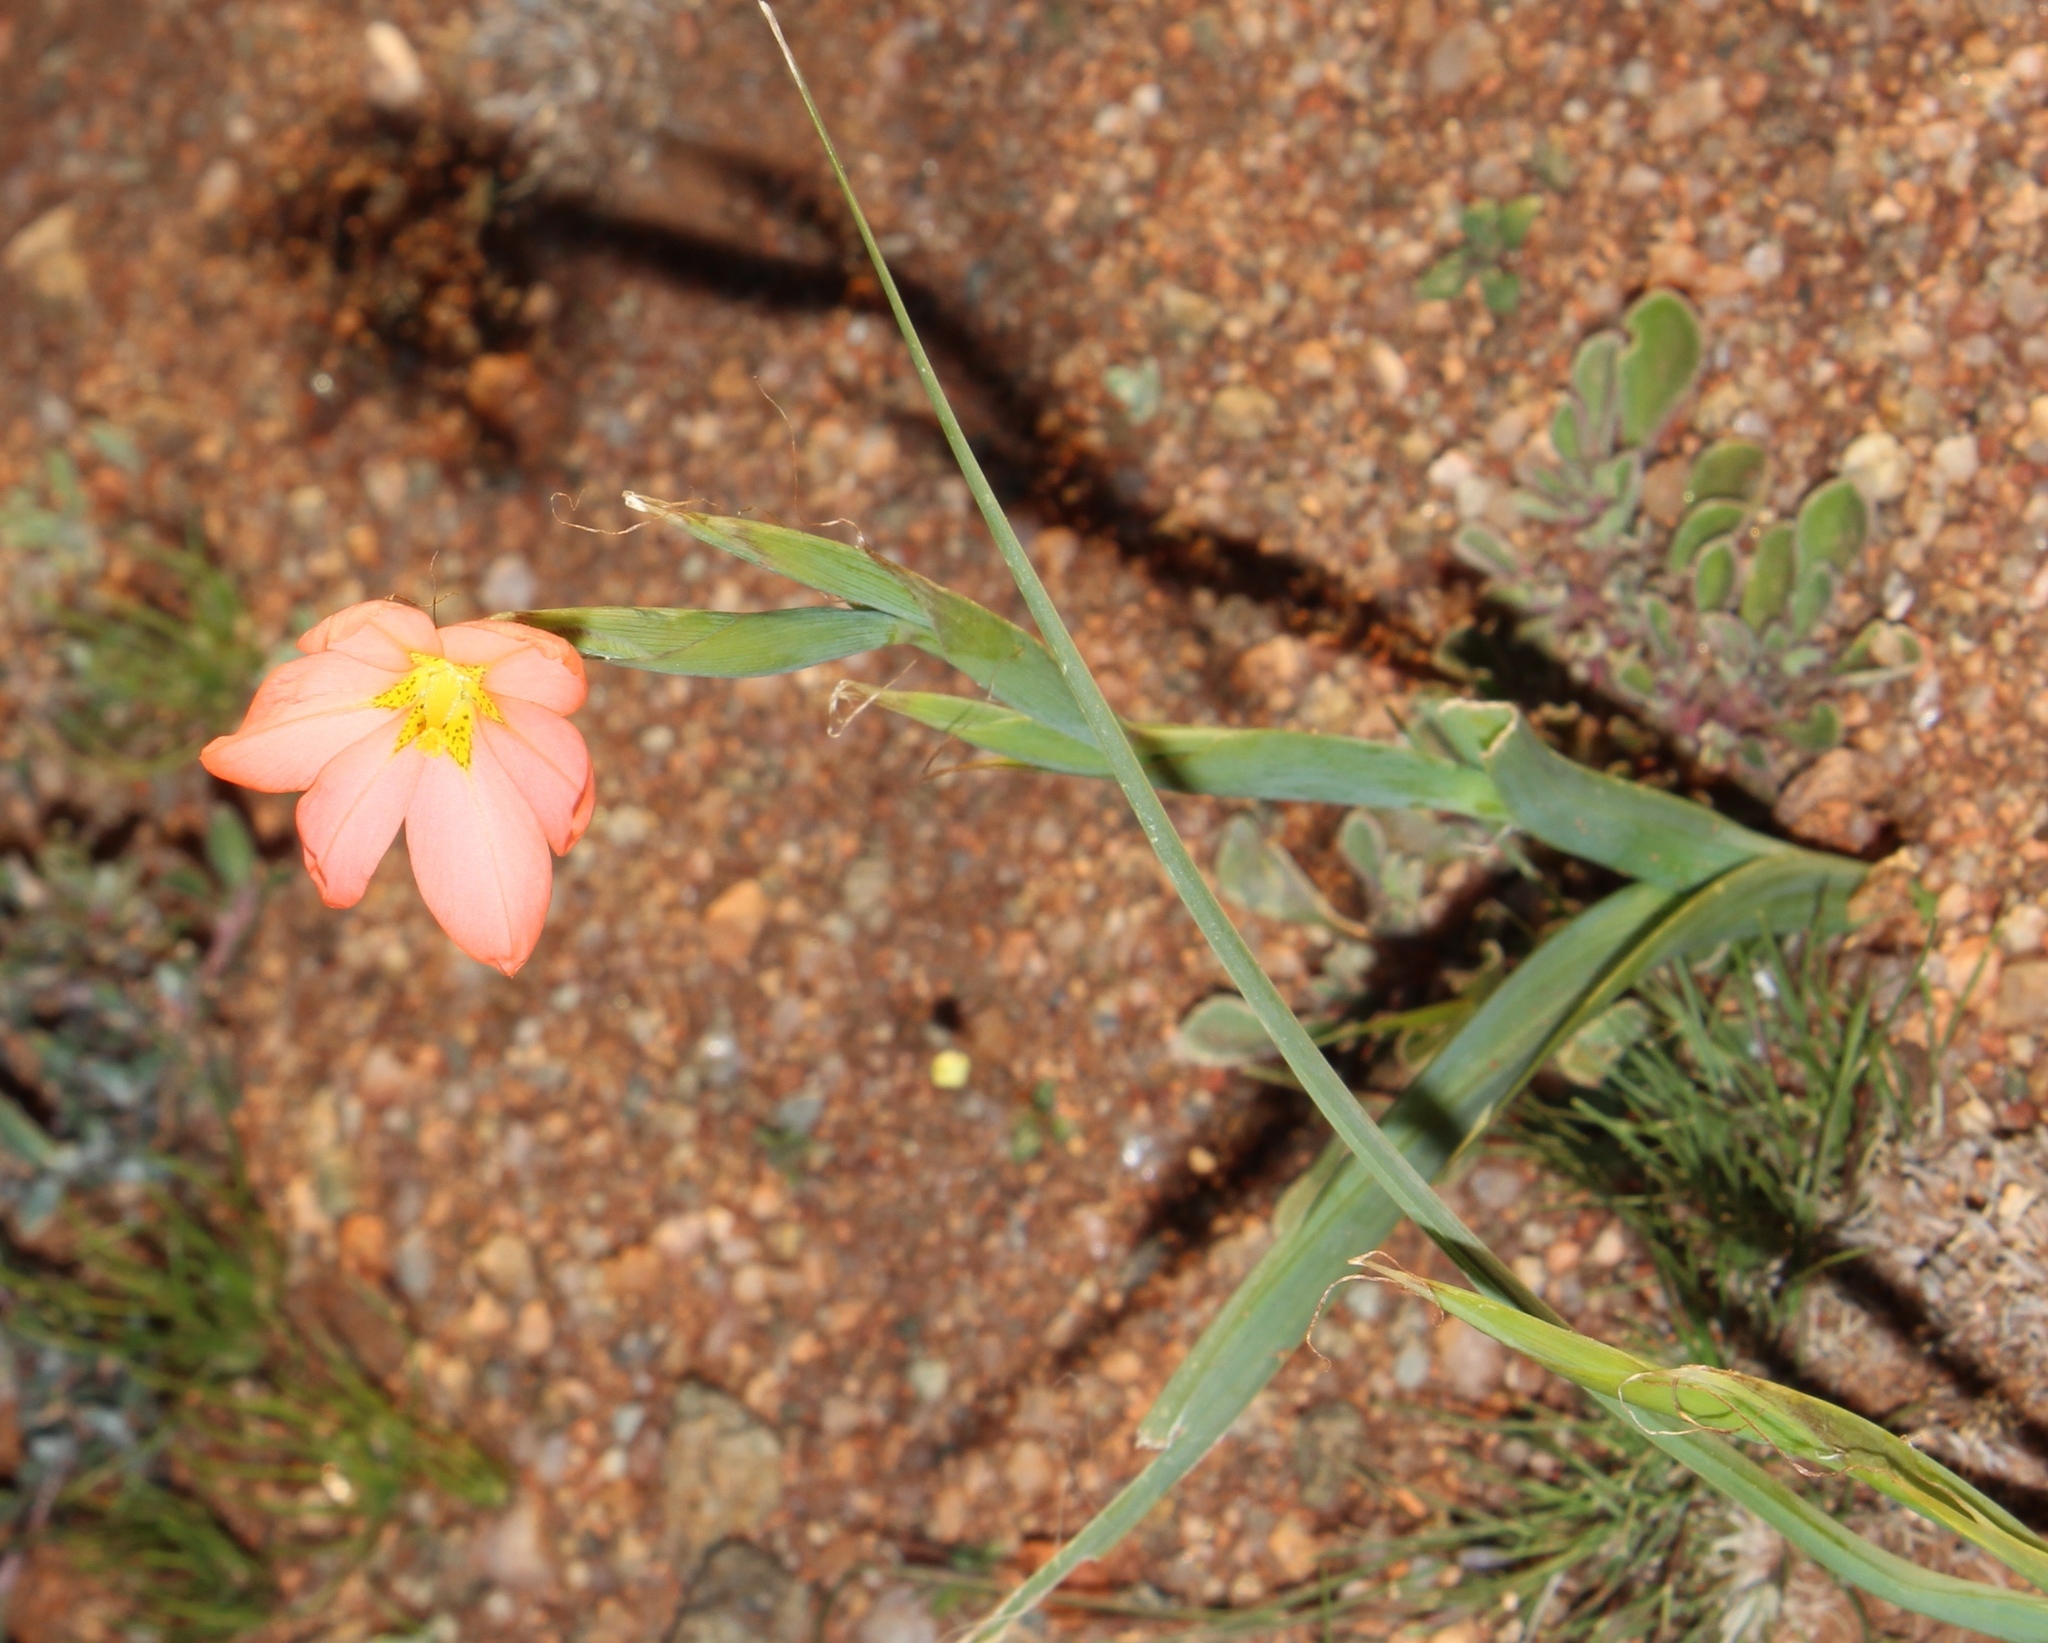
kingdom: Plantae
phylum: Tracheophyta
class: Liliopsida
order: Asparagales
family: Iridaceae
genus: Moraea
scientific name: Moraea miniata
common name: Two-leaf cape-tulip
